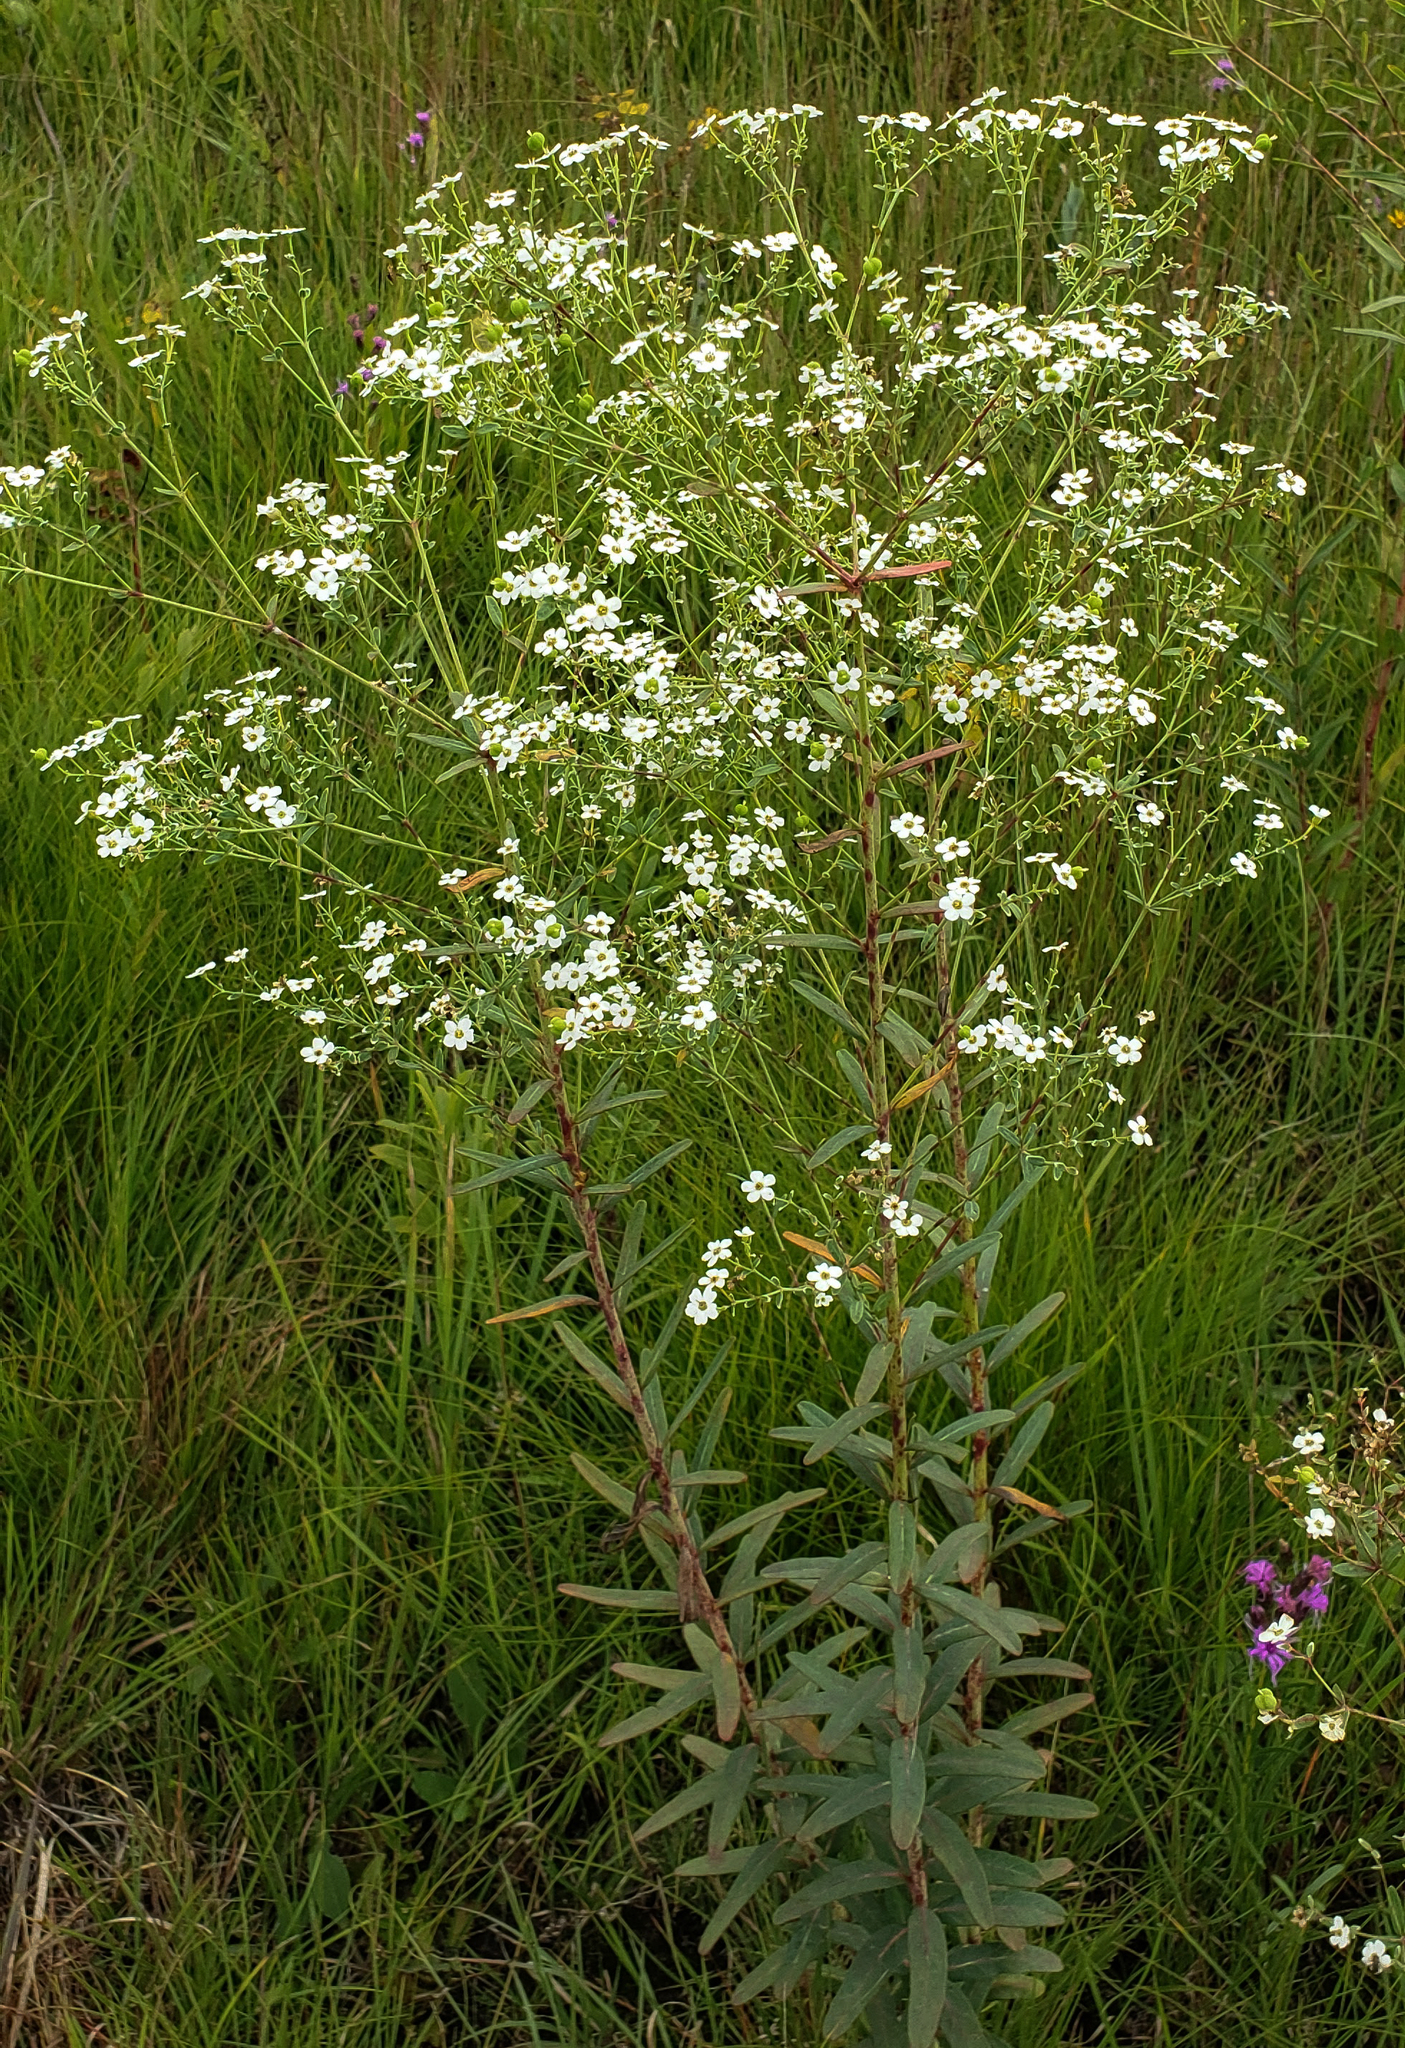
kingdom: Plantae
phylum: Tracheophyta
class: Magnoliopsida
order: Malpighiales
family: Euphorbiaceae
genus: Euphorbia
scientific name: Euphorbia corollata
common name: Flowering spurge
